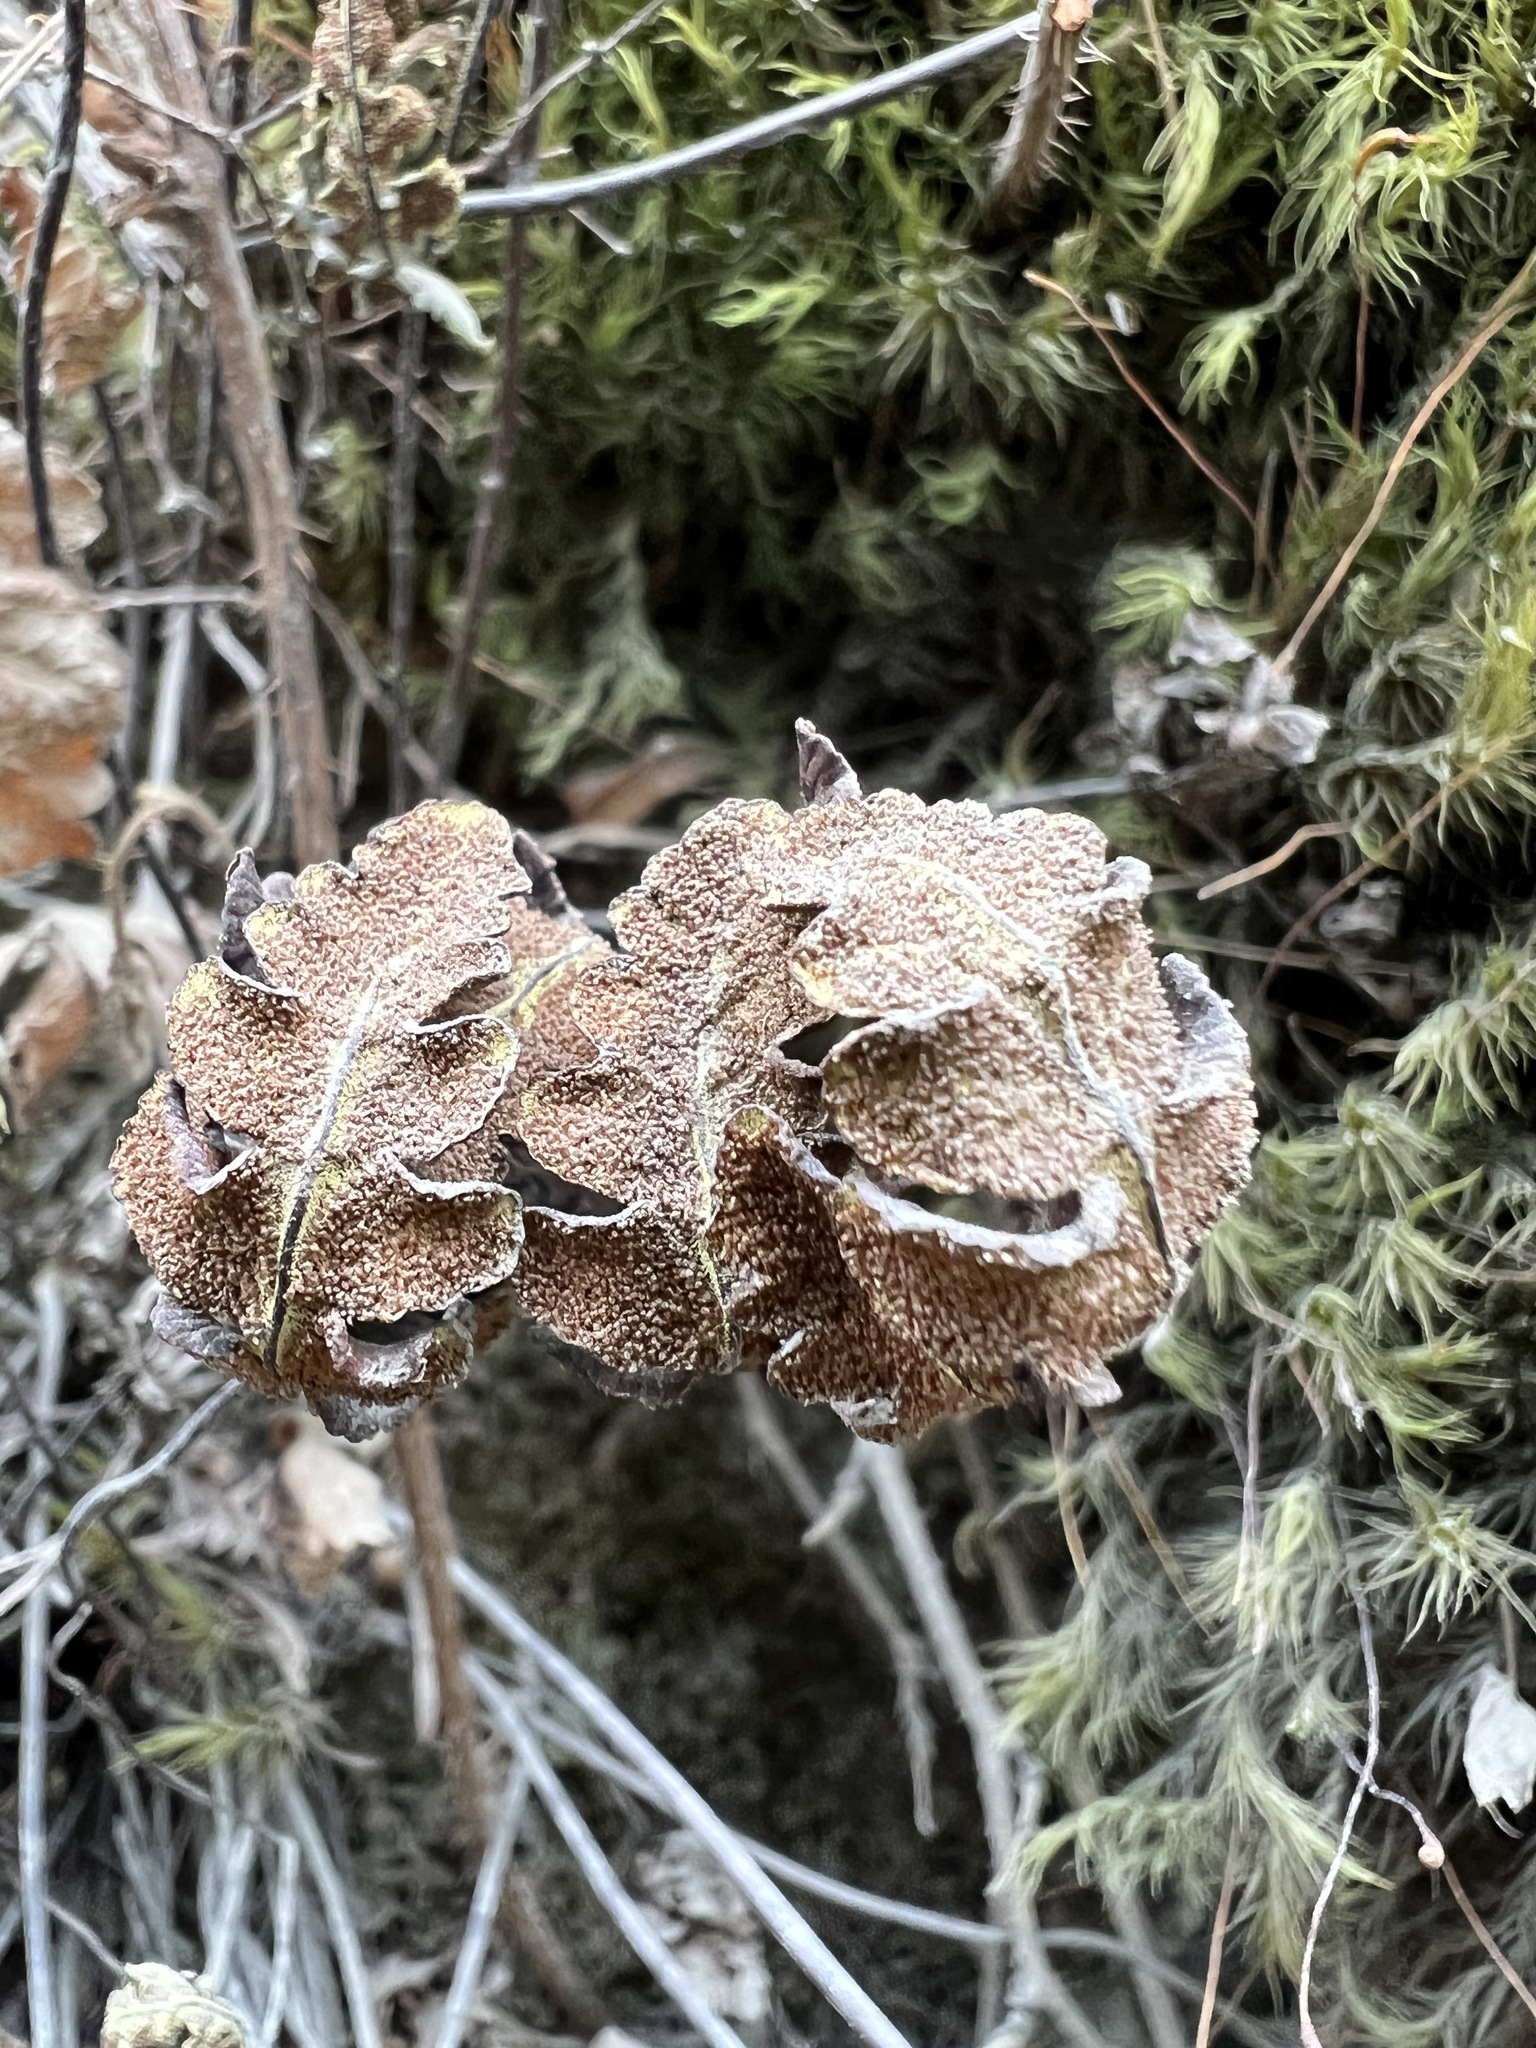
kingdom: Plantae
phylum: Tracheophyta
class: Polypodiopsida
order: Polypodiales
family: Pteridaceae
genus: Pentagramma
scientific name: Pentagramma triangularis
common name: Gold fern
